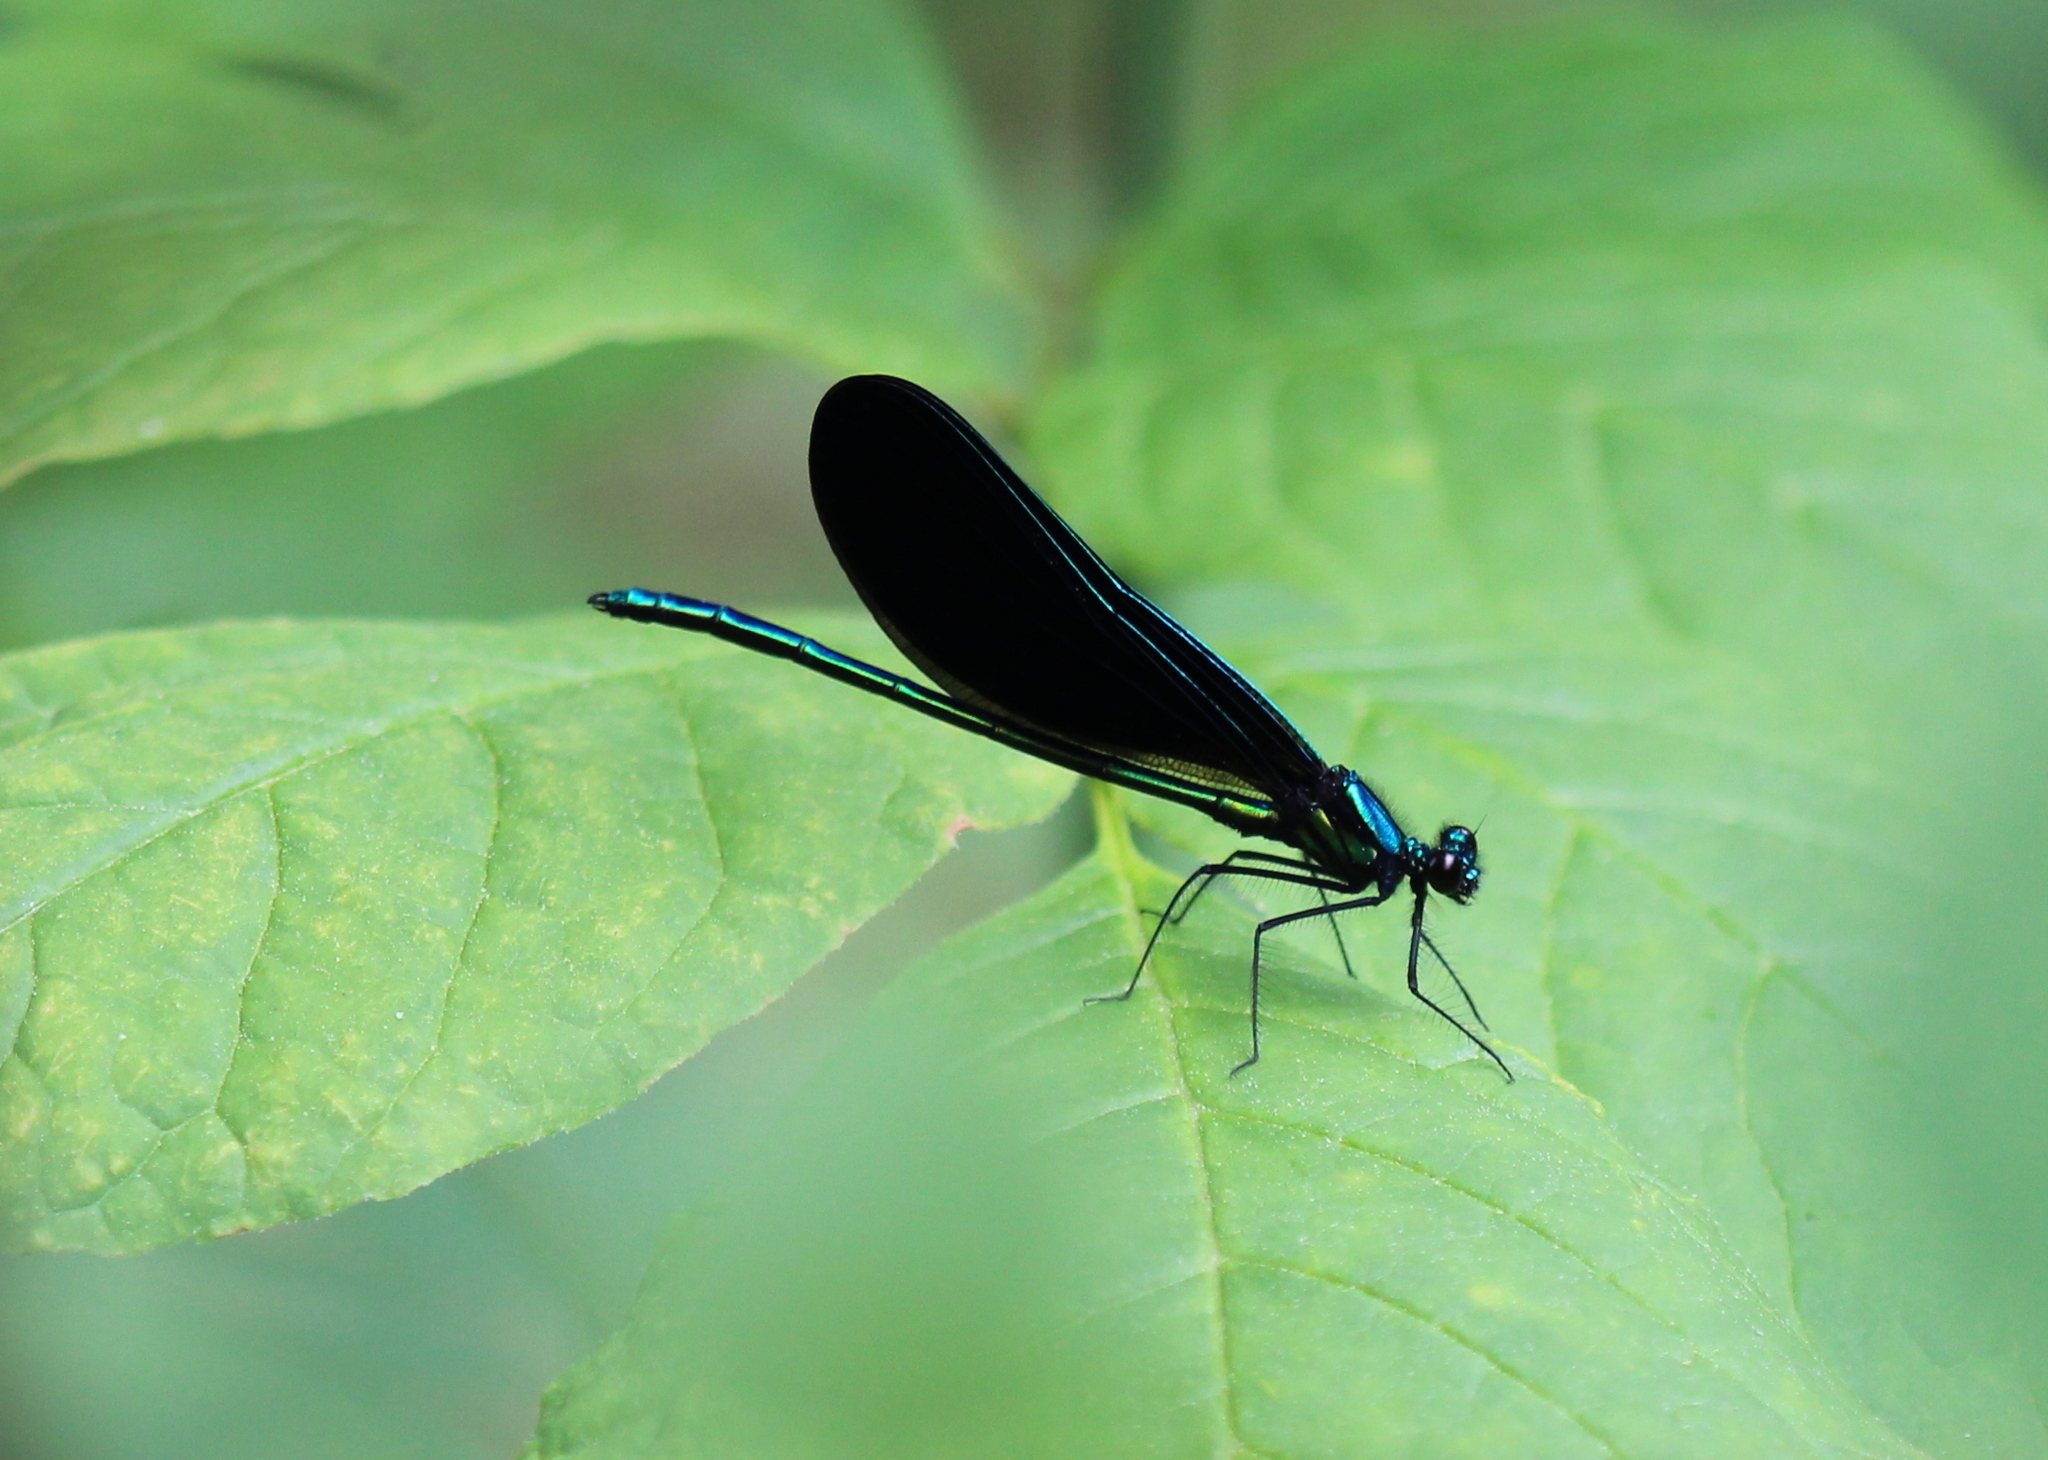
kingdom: Animalia
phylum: Arthropoda
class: Insecta
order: Odonata
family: Calopterygidae
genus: Calopteryx
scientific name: Calopteryx maculata
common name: Ebony jewelwing
